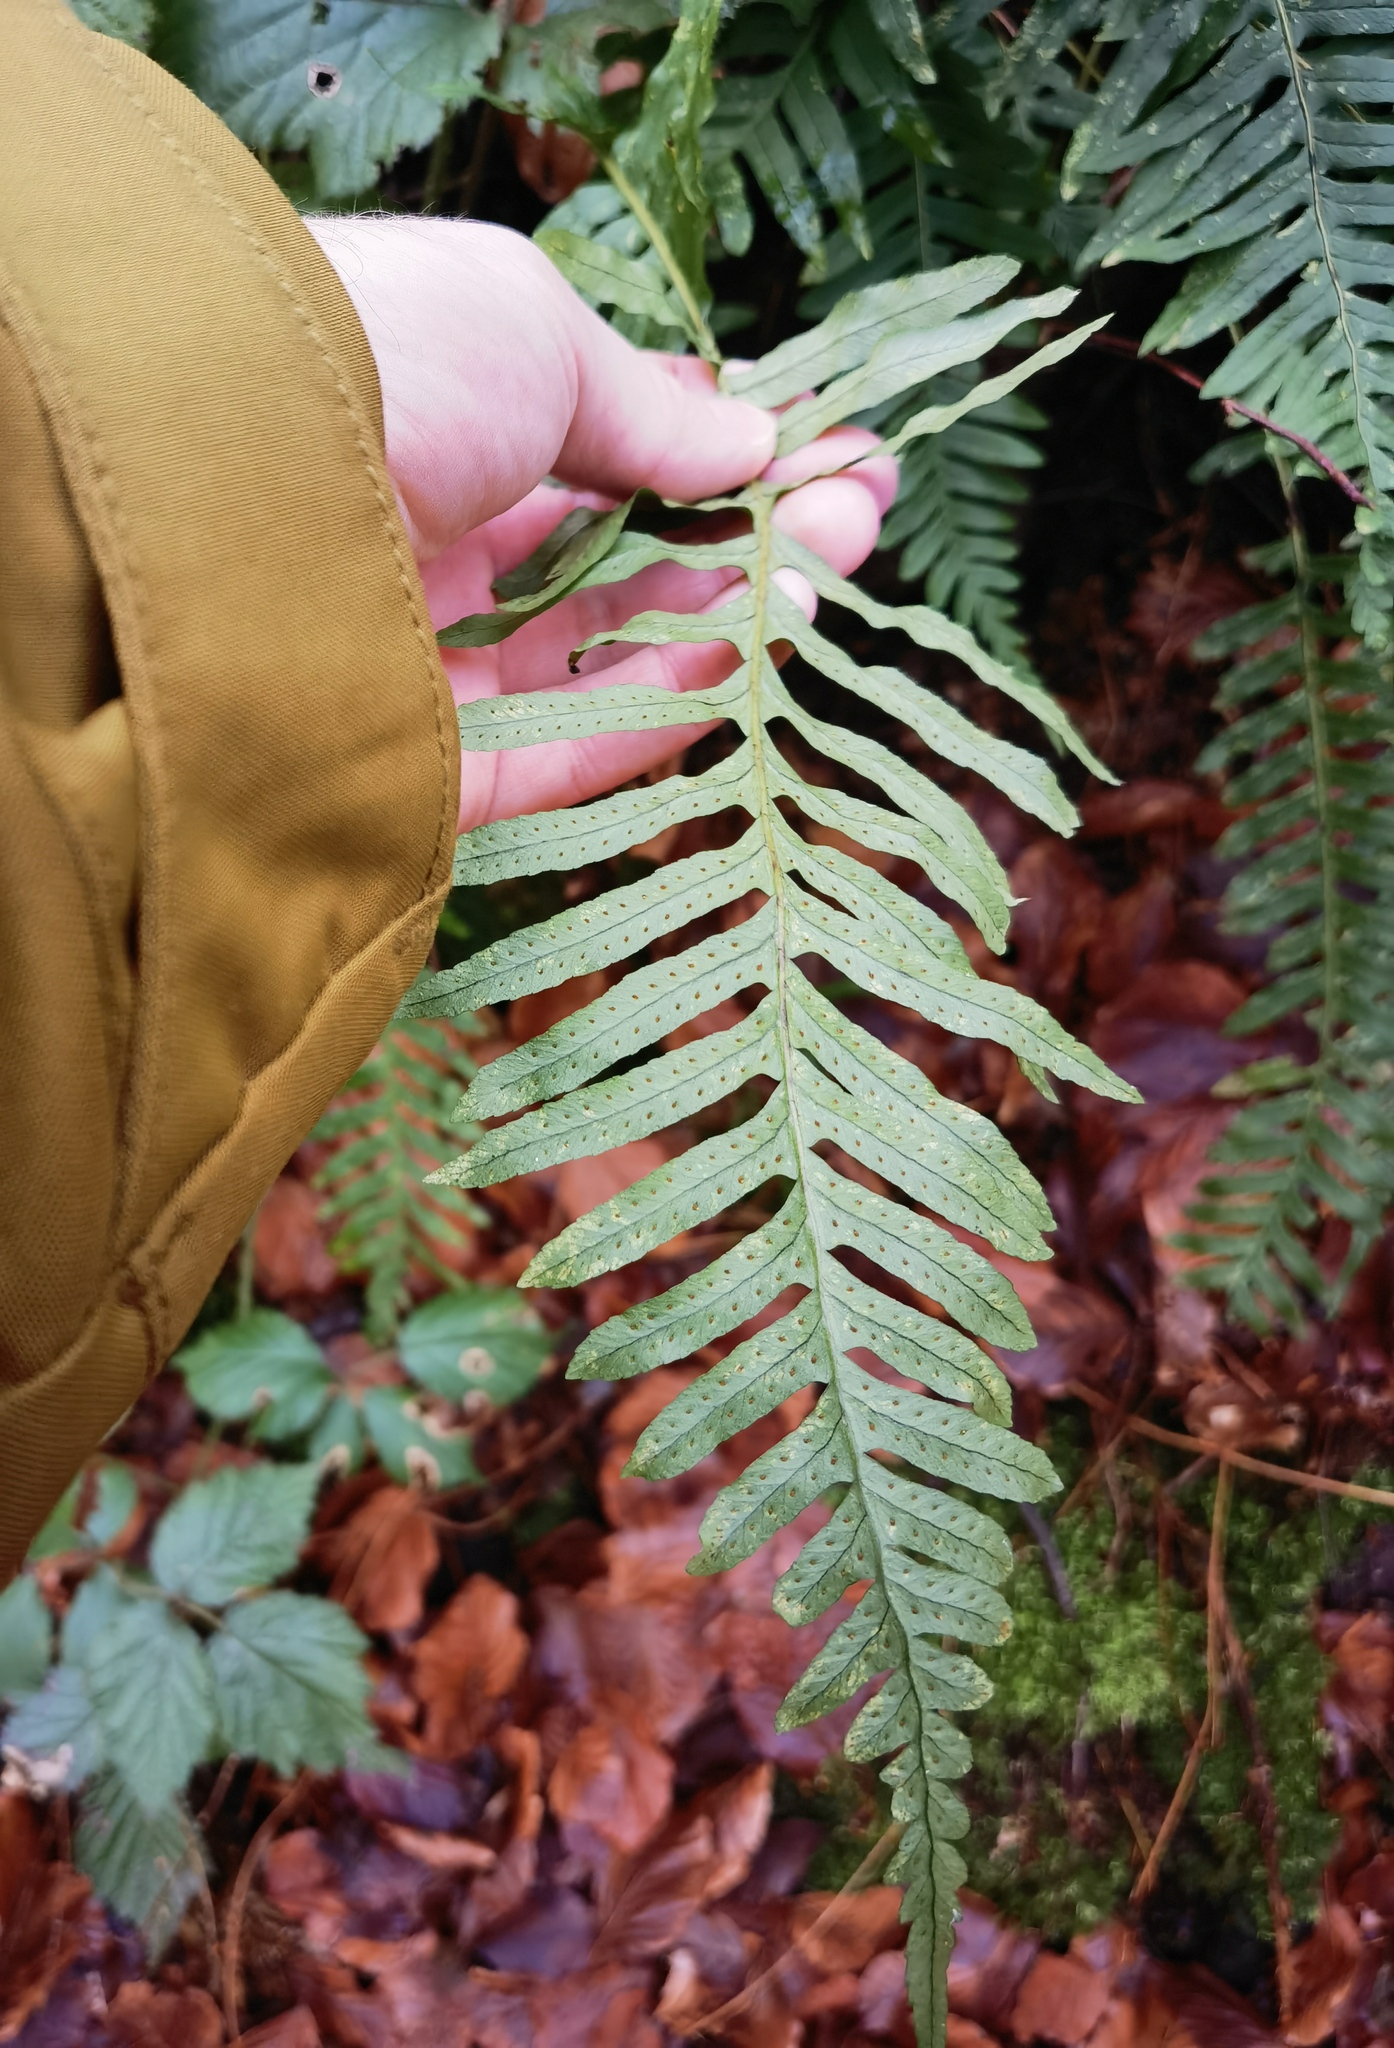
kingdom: Plantae
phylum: Tracheophyta
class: Polypodiopsida
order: Polypodiales
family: Polypodiaceae
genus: Polypodium
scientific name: Polypodium vulgare
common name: Common polypody
